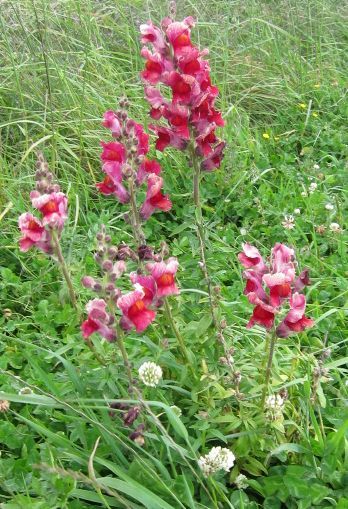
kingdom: Plantae
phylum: Tracheophyta
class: Magnoliopsida
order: Lamiales
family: Plantaginaceae
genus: Antirrhinum
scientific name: Antirrhinum majus
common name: Snapdragon
